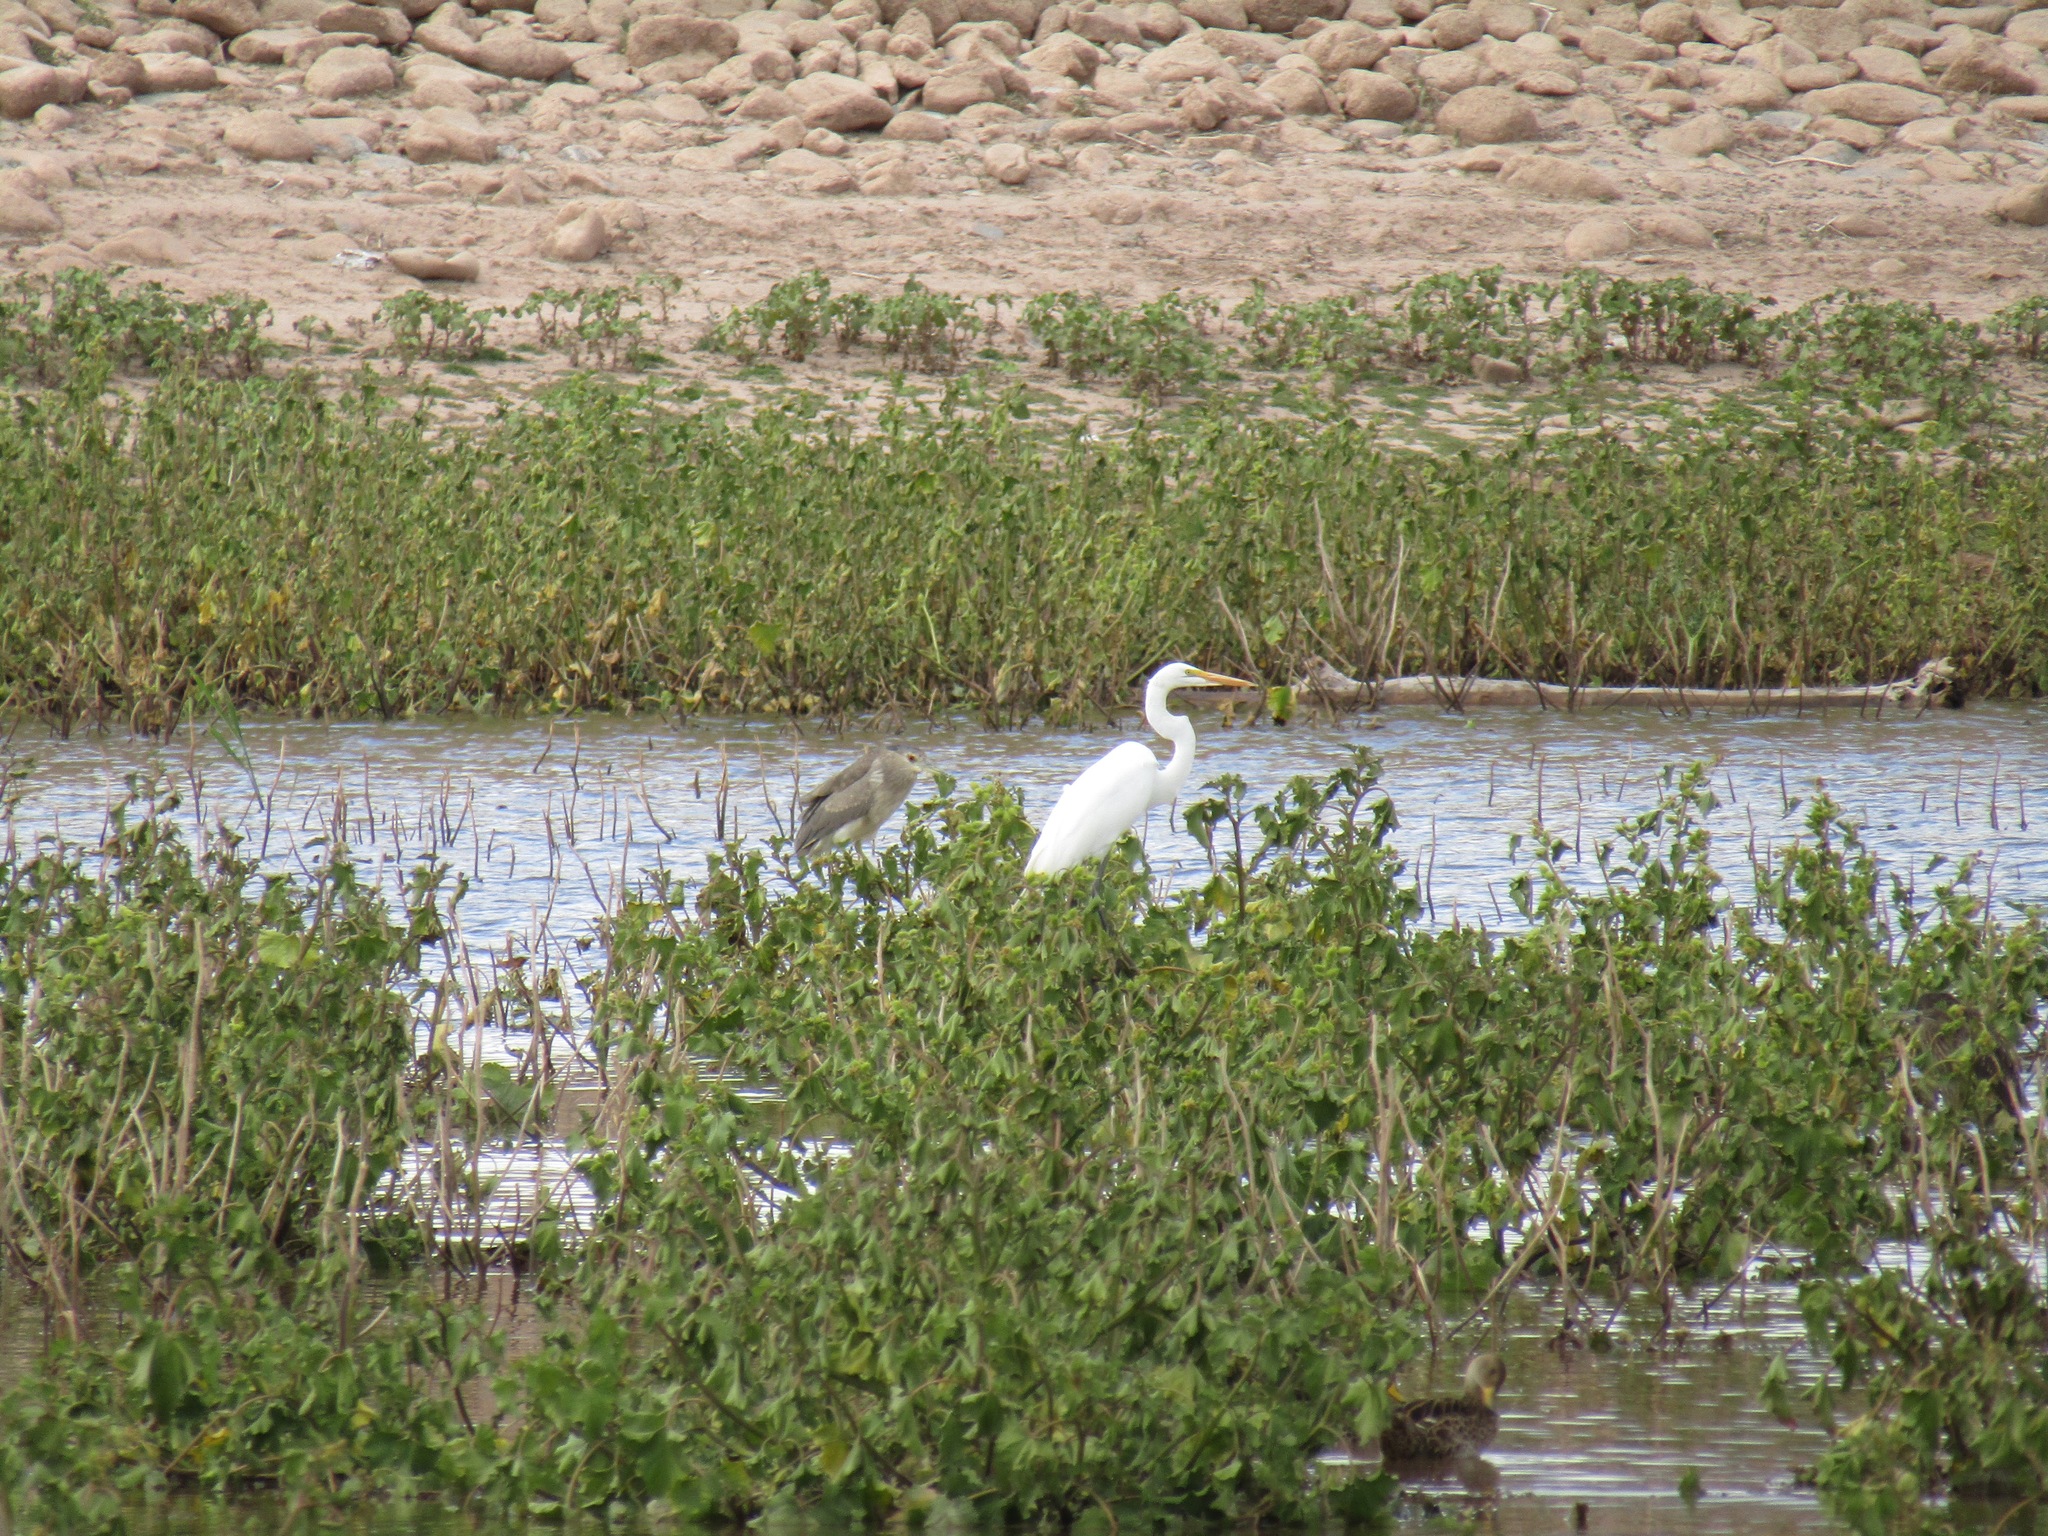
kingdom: Animalia
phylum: Chordata
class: Aves
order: Pelecaniformes
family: Ardeidae
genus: Ardea
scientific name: Ardea alba
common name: Great egret
